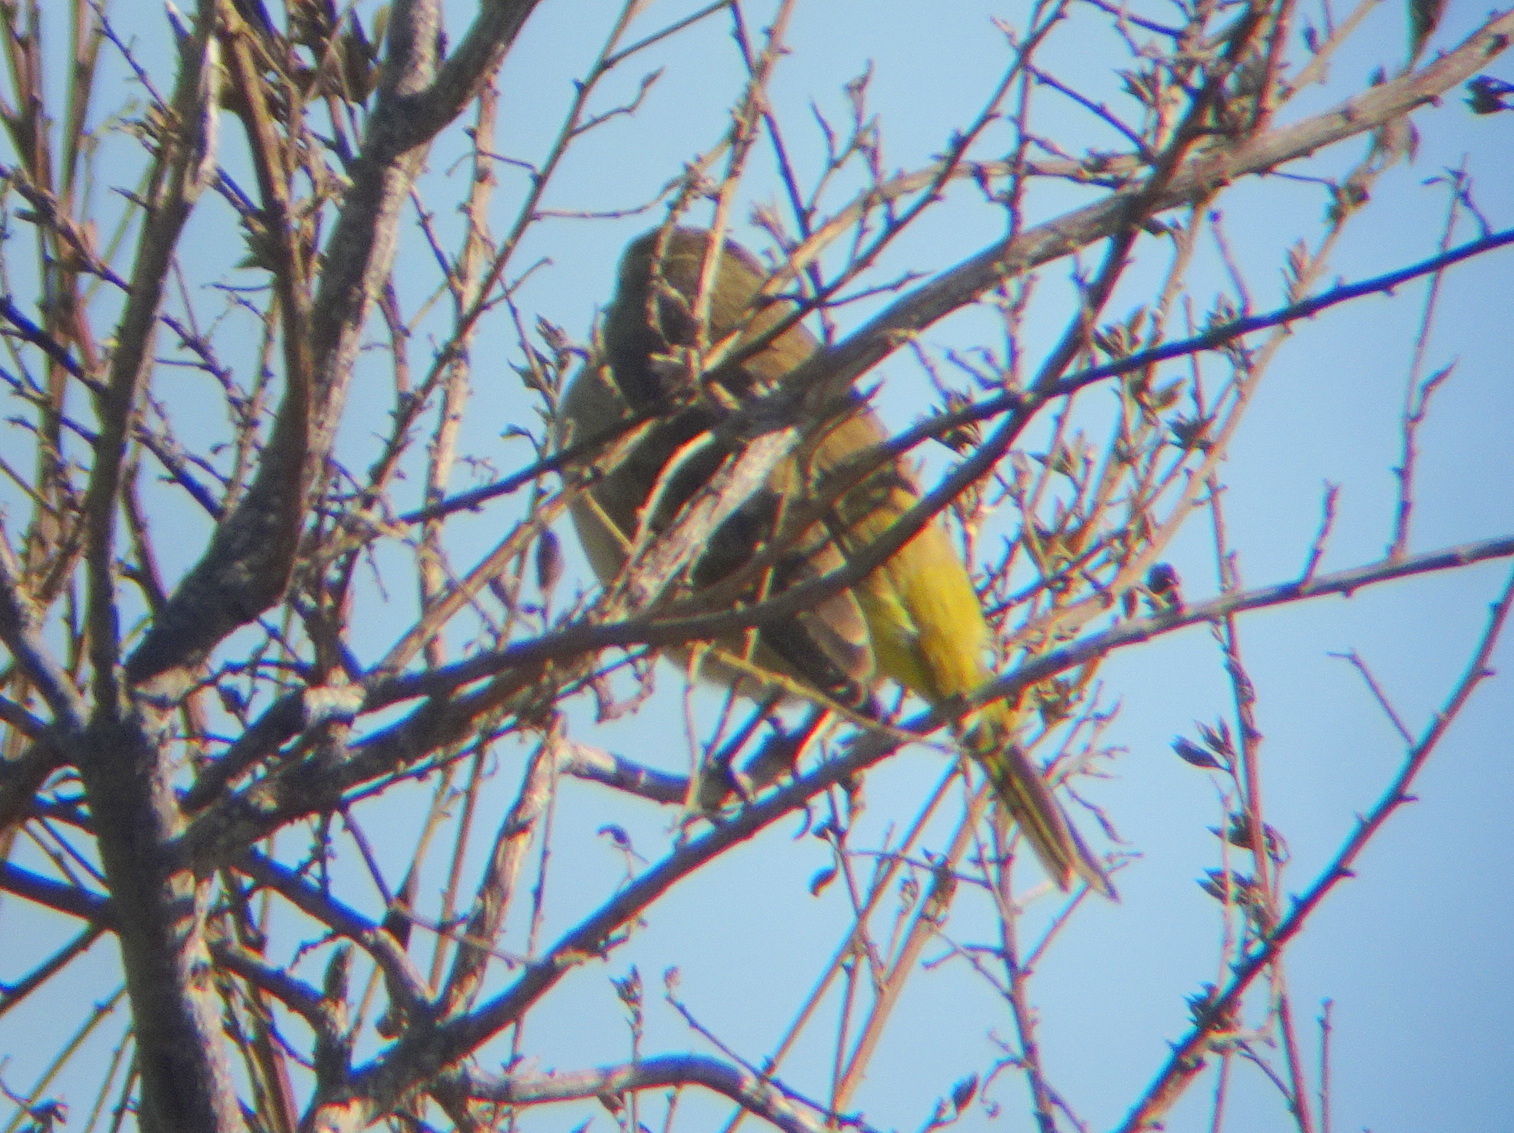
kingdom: Animalia
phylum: Chordata
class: Aves
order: Passeriformes
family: Parulidae
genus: Setophaga
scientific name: Setophaga palmarum
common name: Palm warbler
